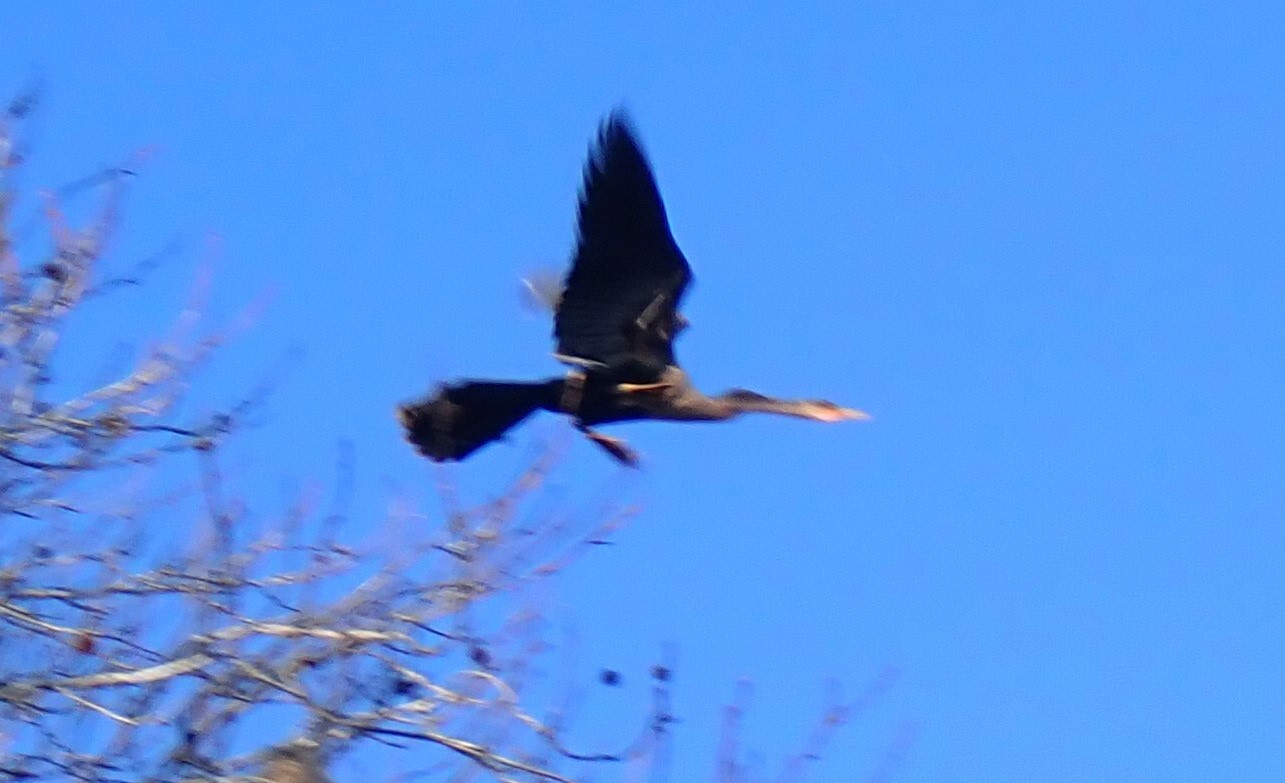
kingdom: Animalia
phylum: Chordata
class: Aves
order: Suliformes
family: Anhingidae
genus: Anhinga
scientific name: Anhinga anhinga
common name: Anhinga
